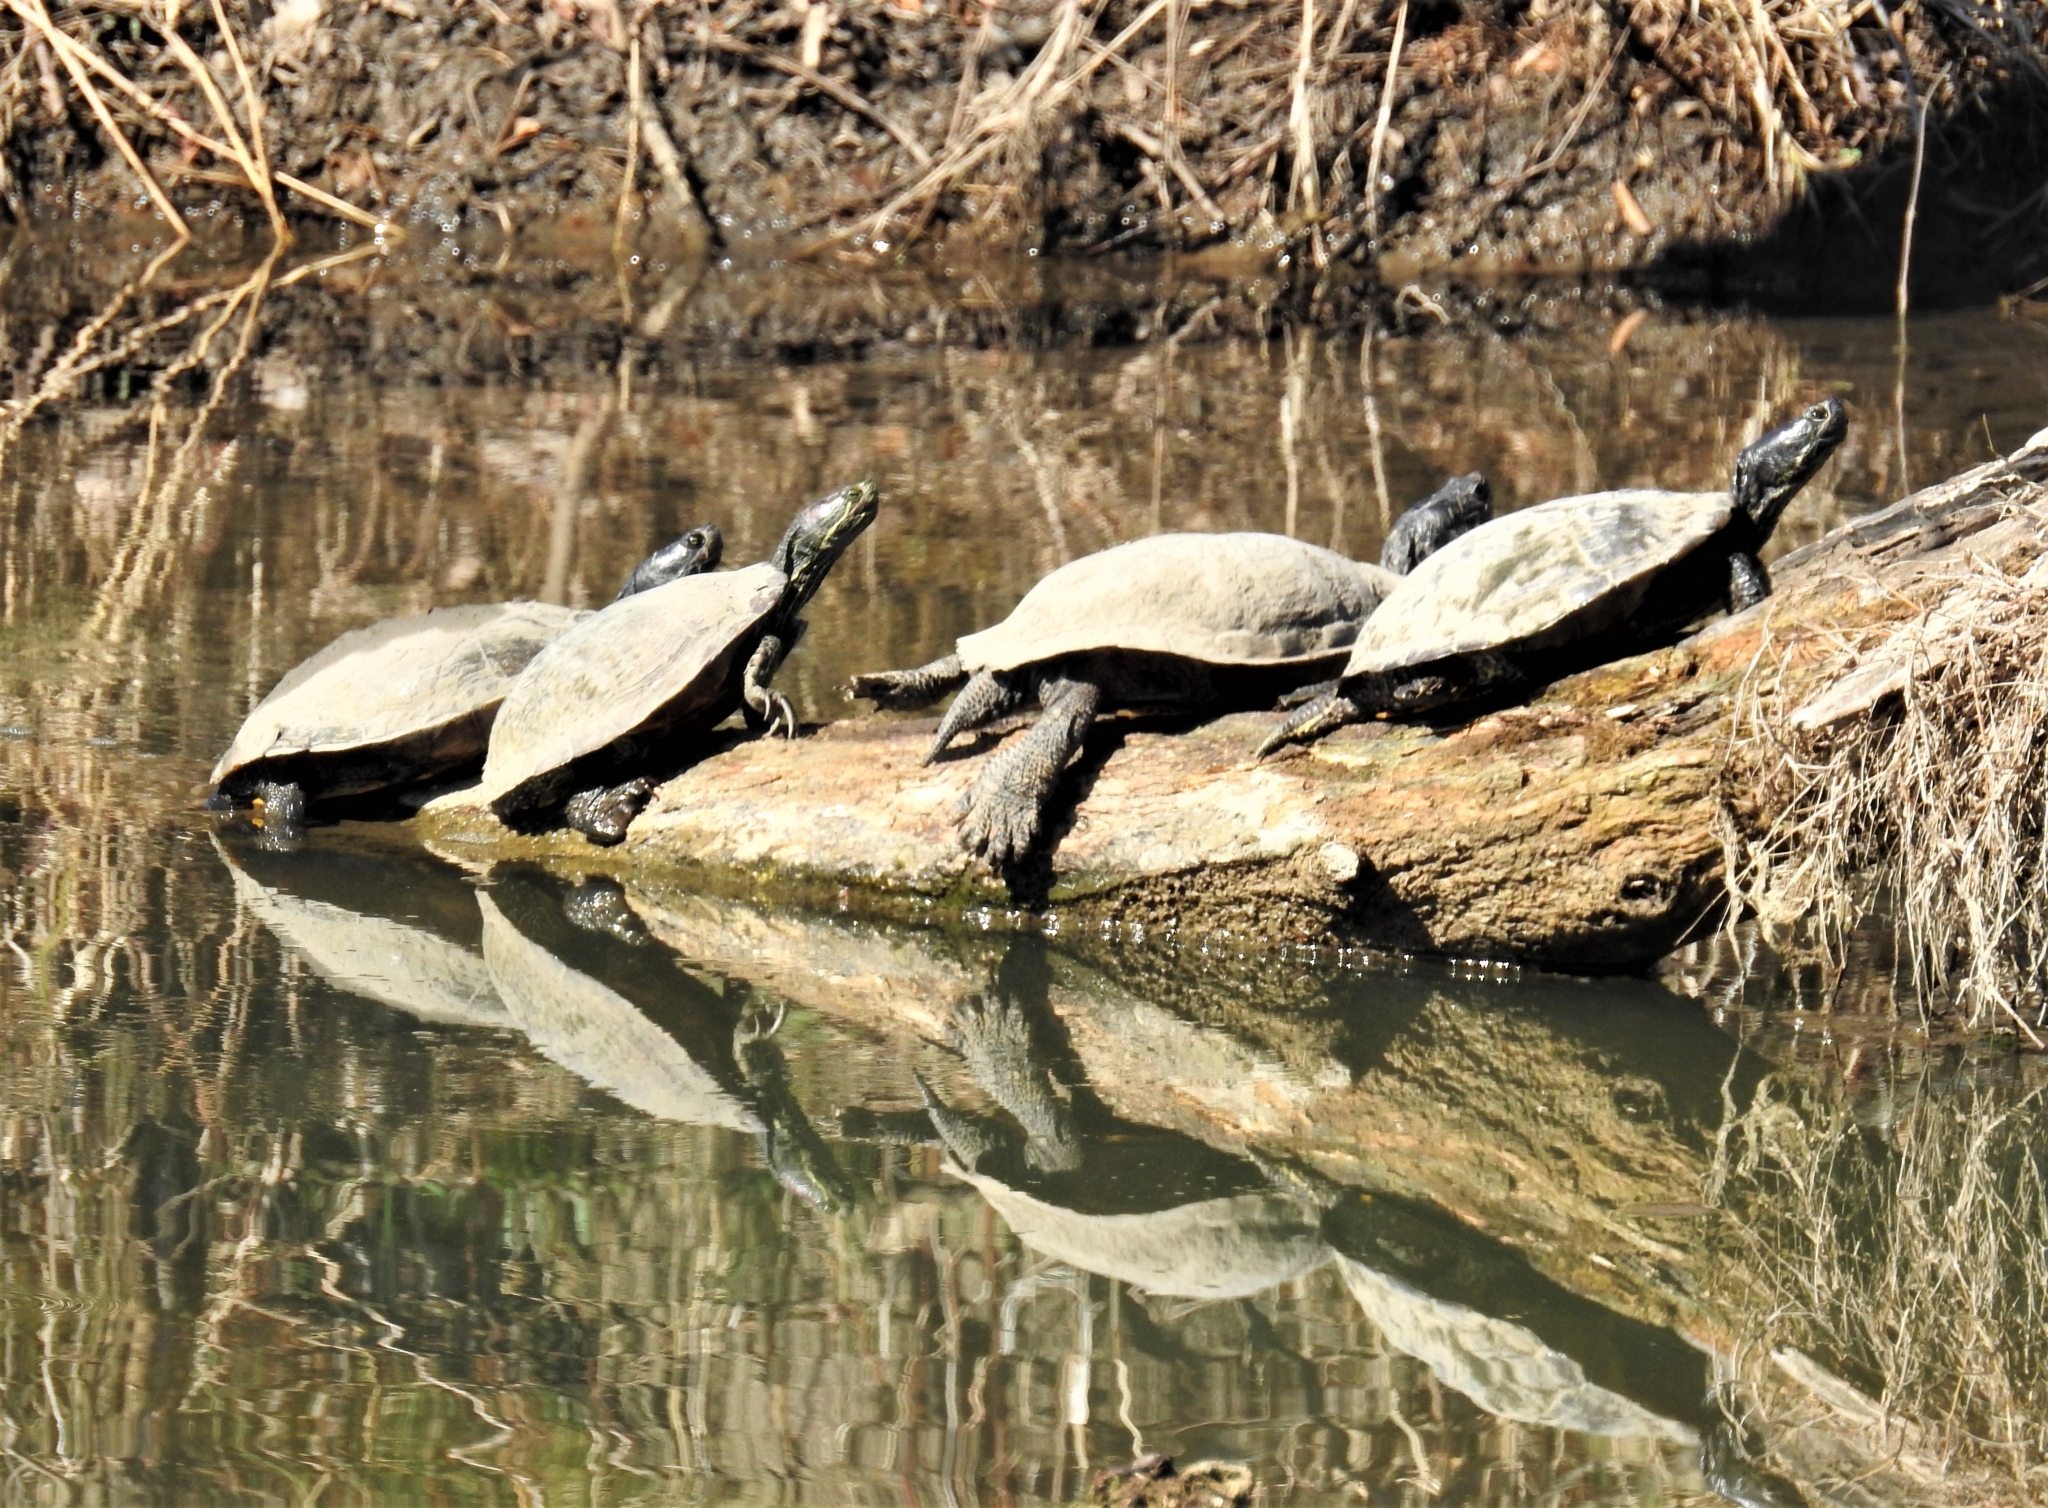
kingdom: Animalia
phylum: Chordata
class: Testudines
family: Emydidae
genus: Trachemys
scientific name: Trachemys scripta
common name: Slider
